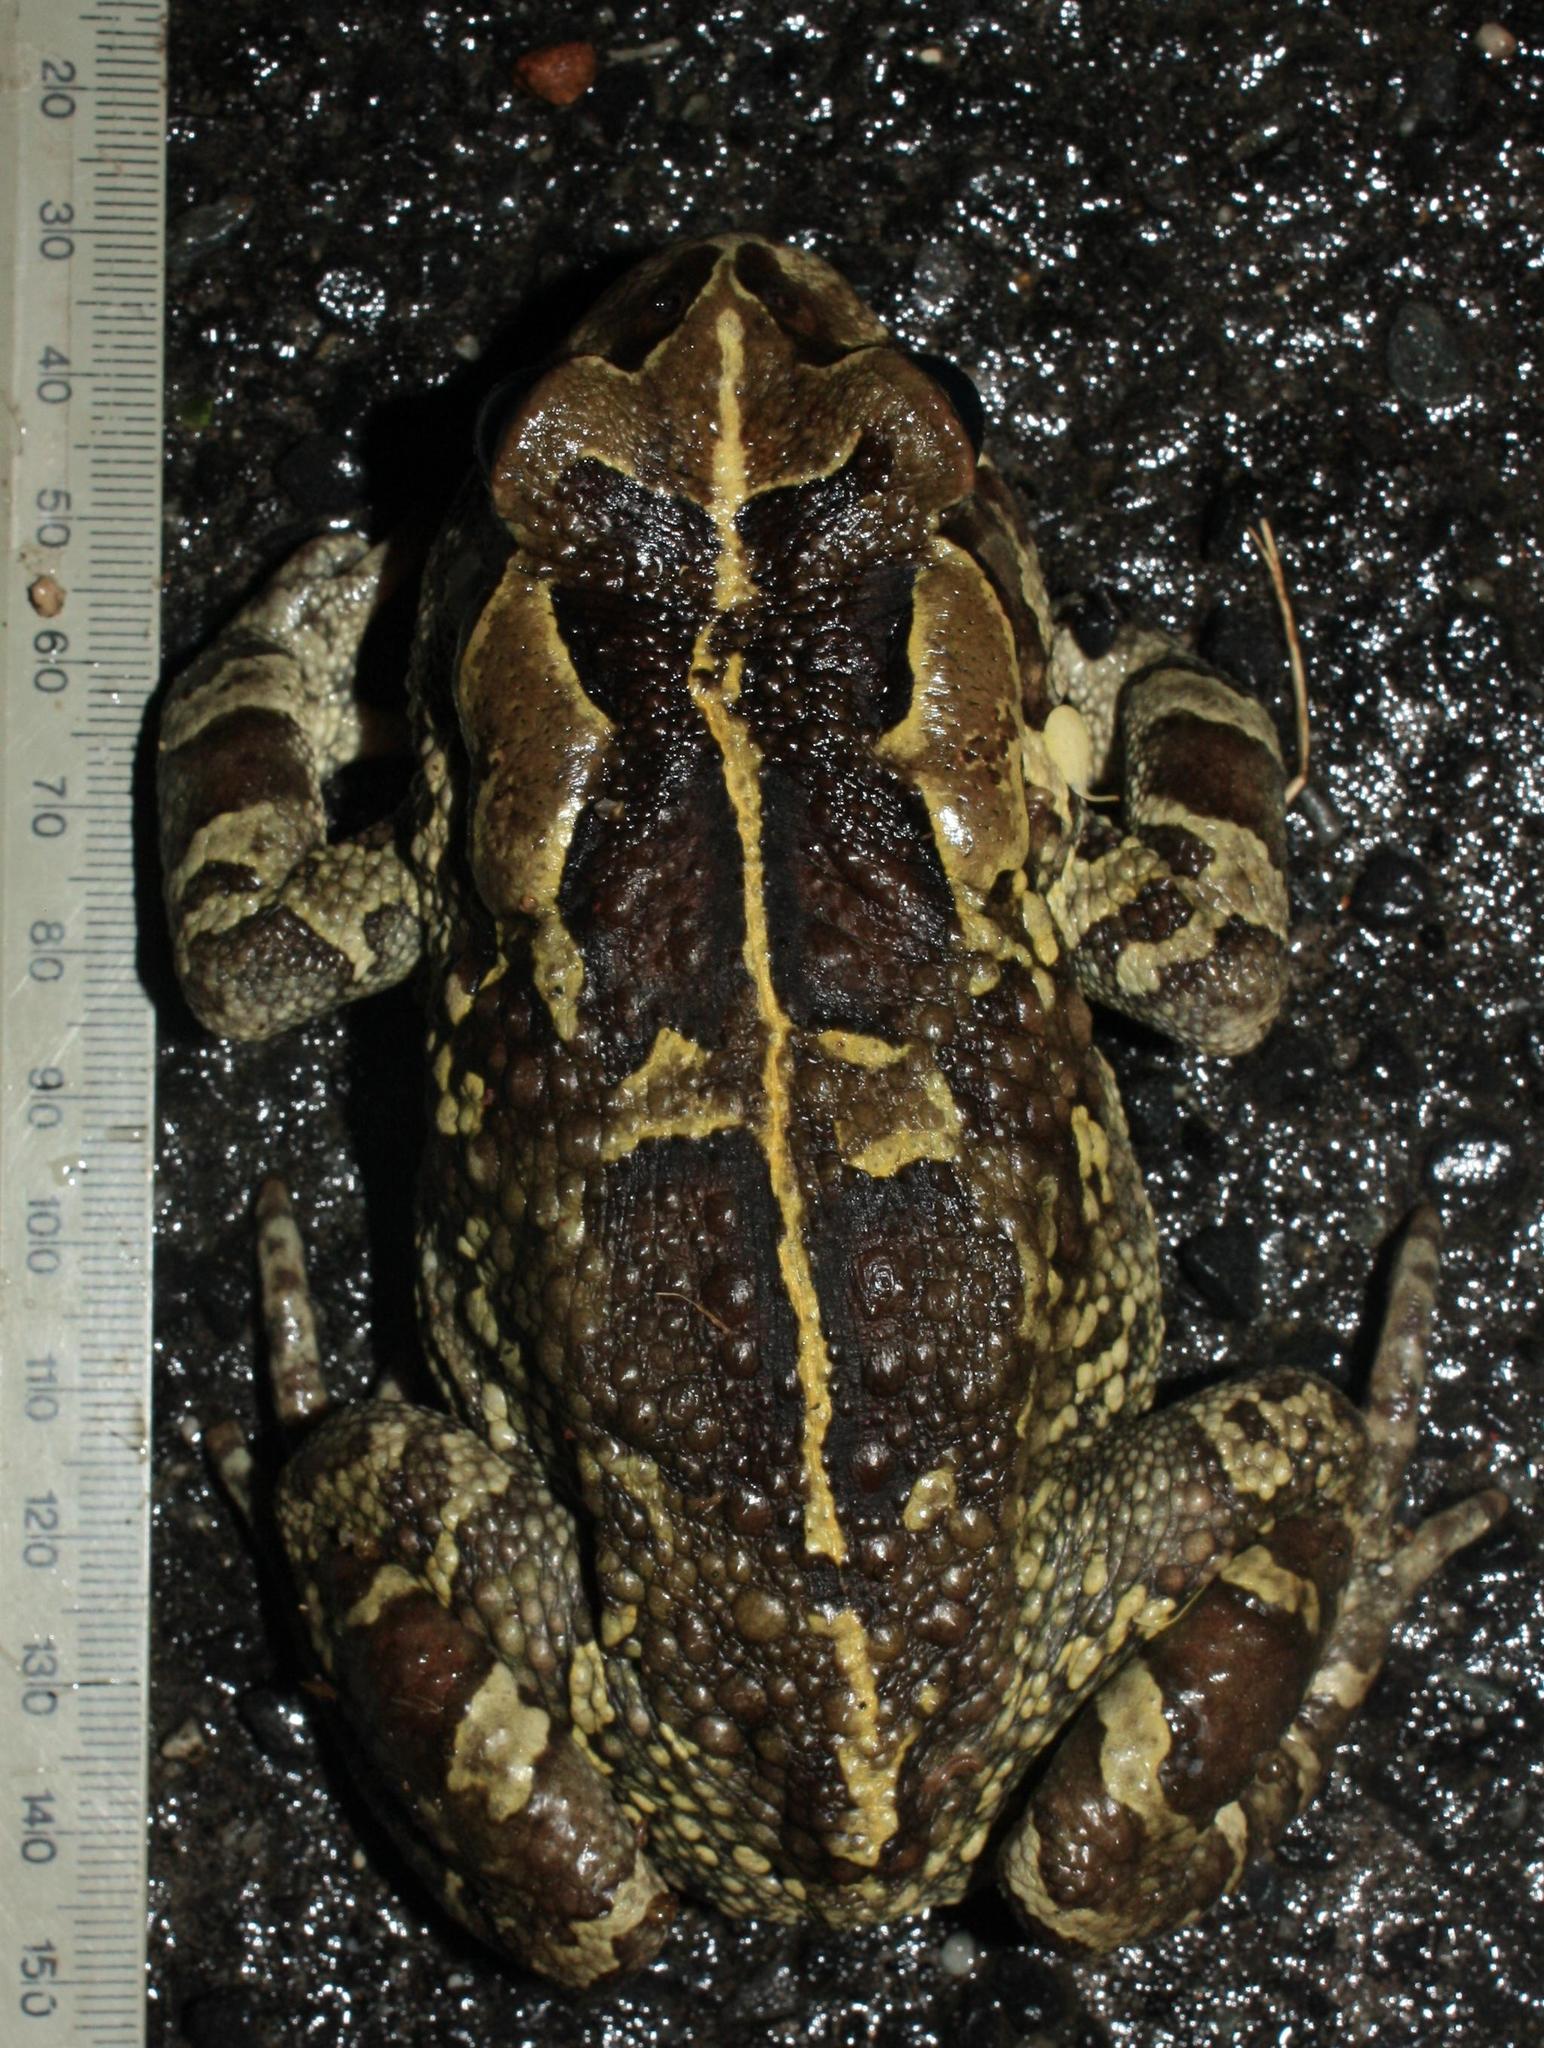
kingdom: Animalia
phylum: Chordata
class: Amphibia
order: Anura
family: Bufonidae
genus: Sclerophrys
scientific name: Sclerophrys pantherina
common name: Panther toad
